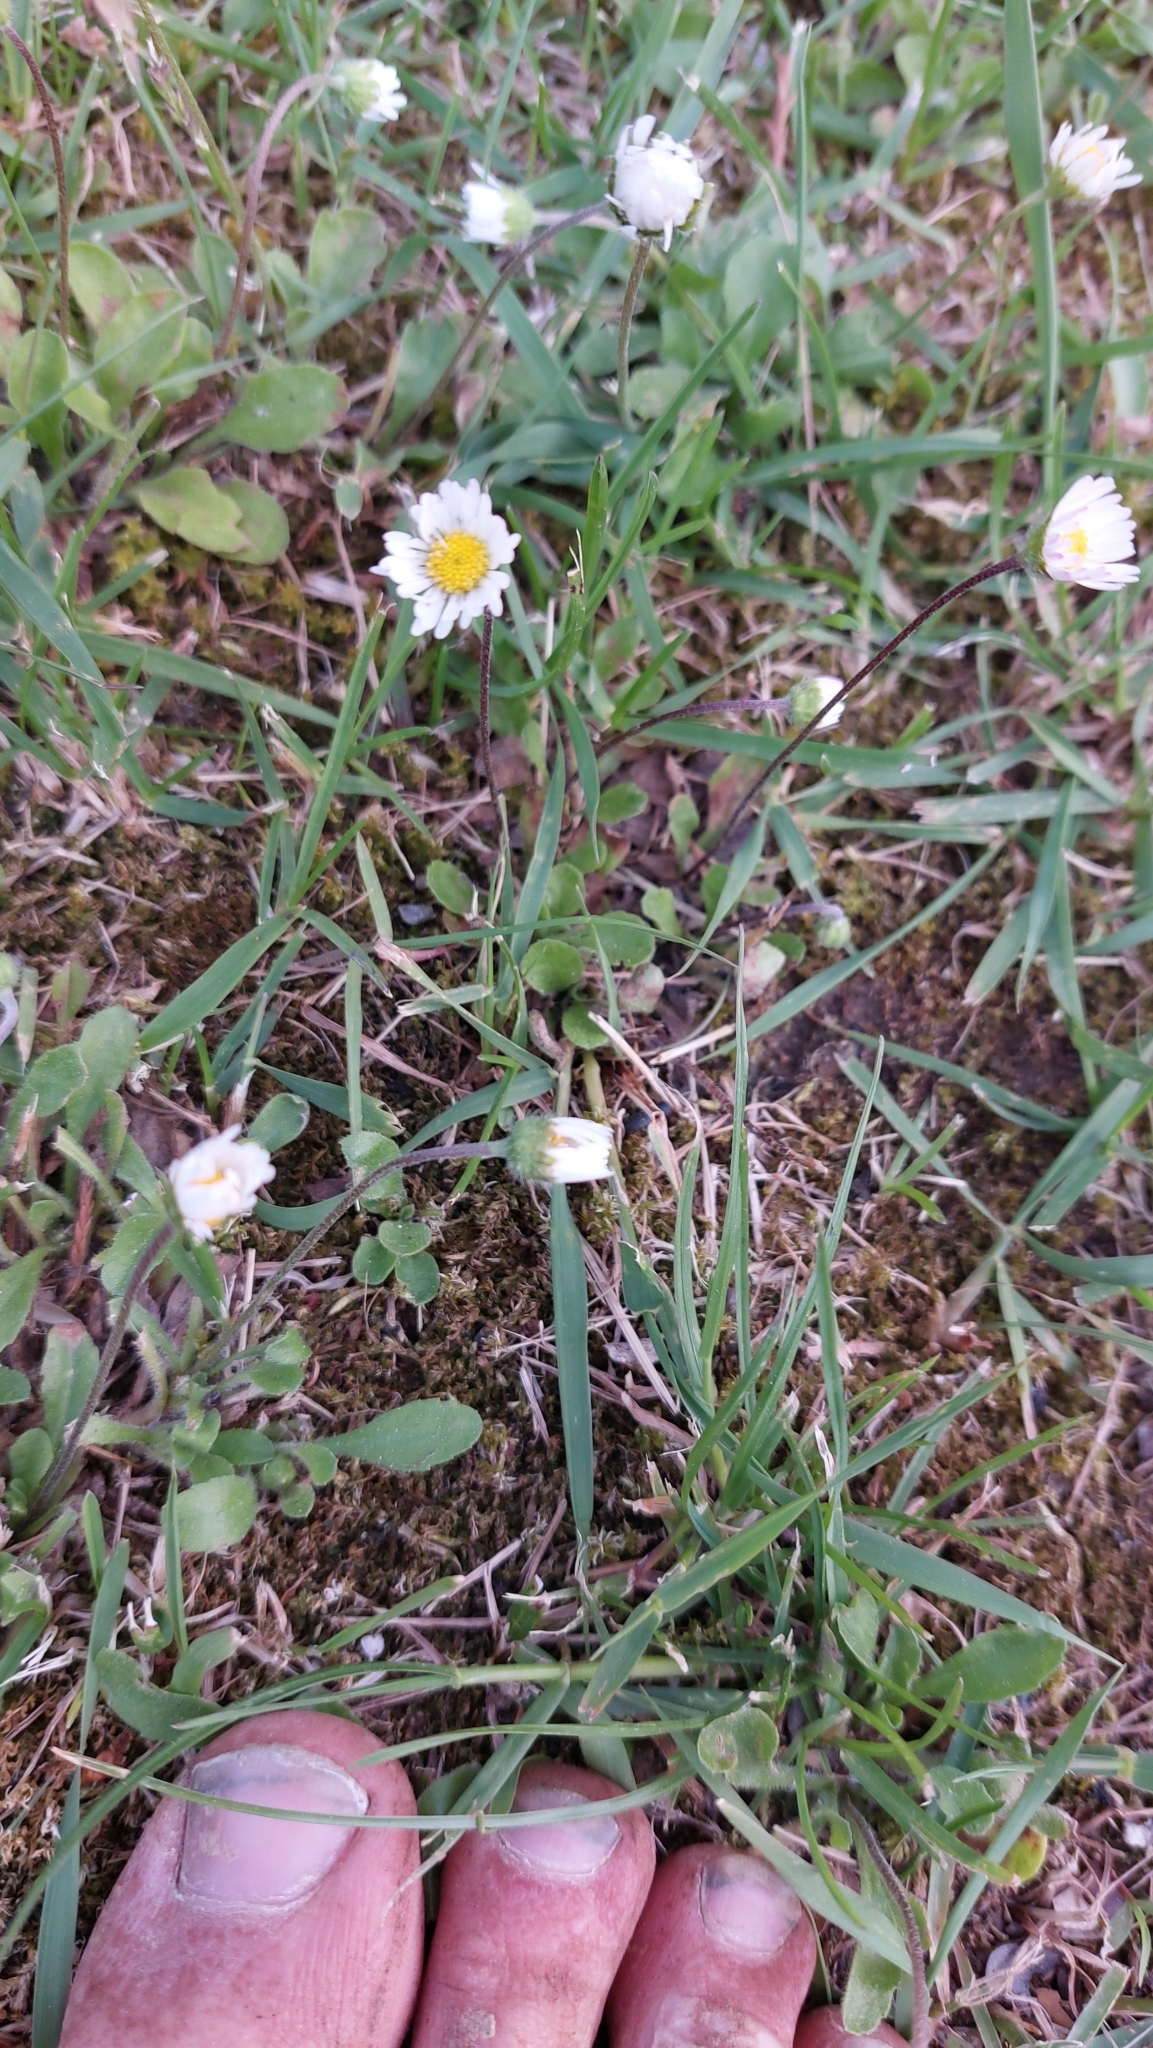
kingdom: Plantae
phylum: Tracheophyta
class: Magnoliopsida
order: Asterales
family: Asteraceae
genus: Bellis
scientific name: Bellis perennis
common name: Lawndaisy
